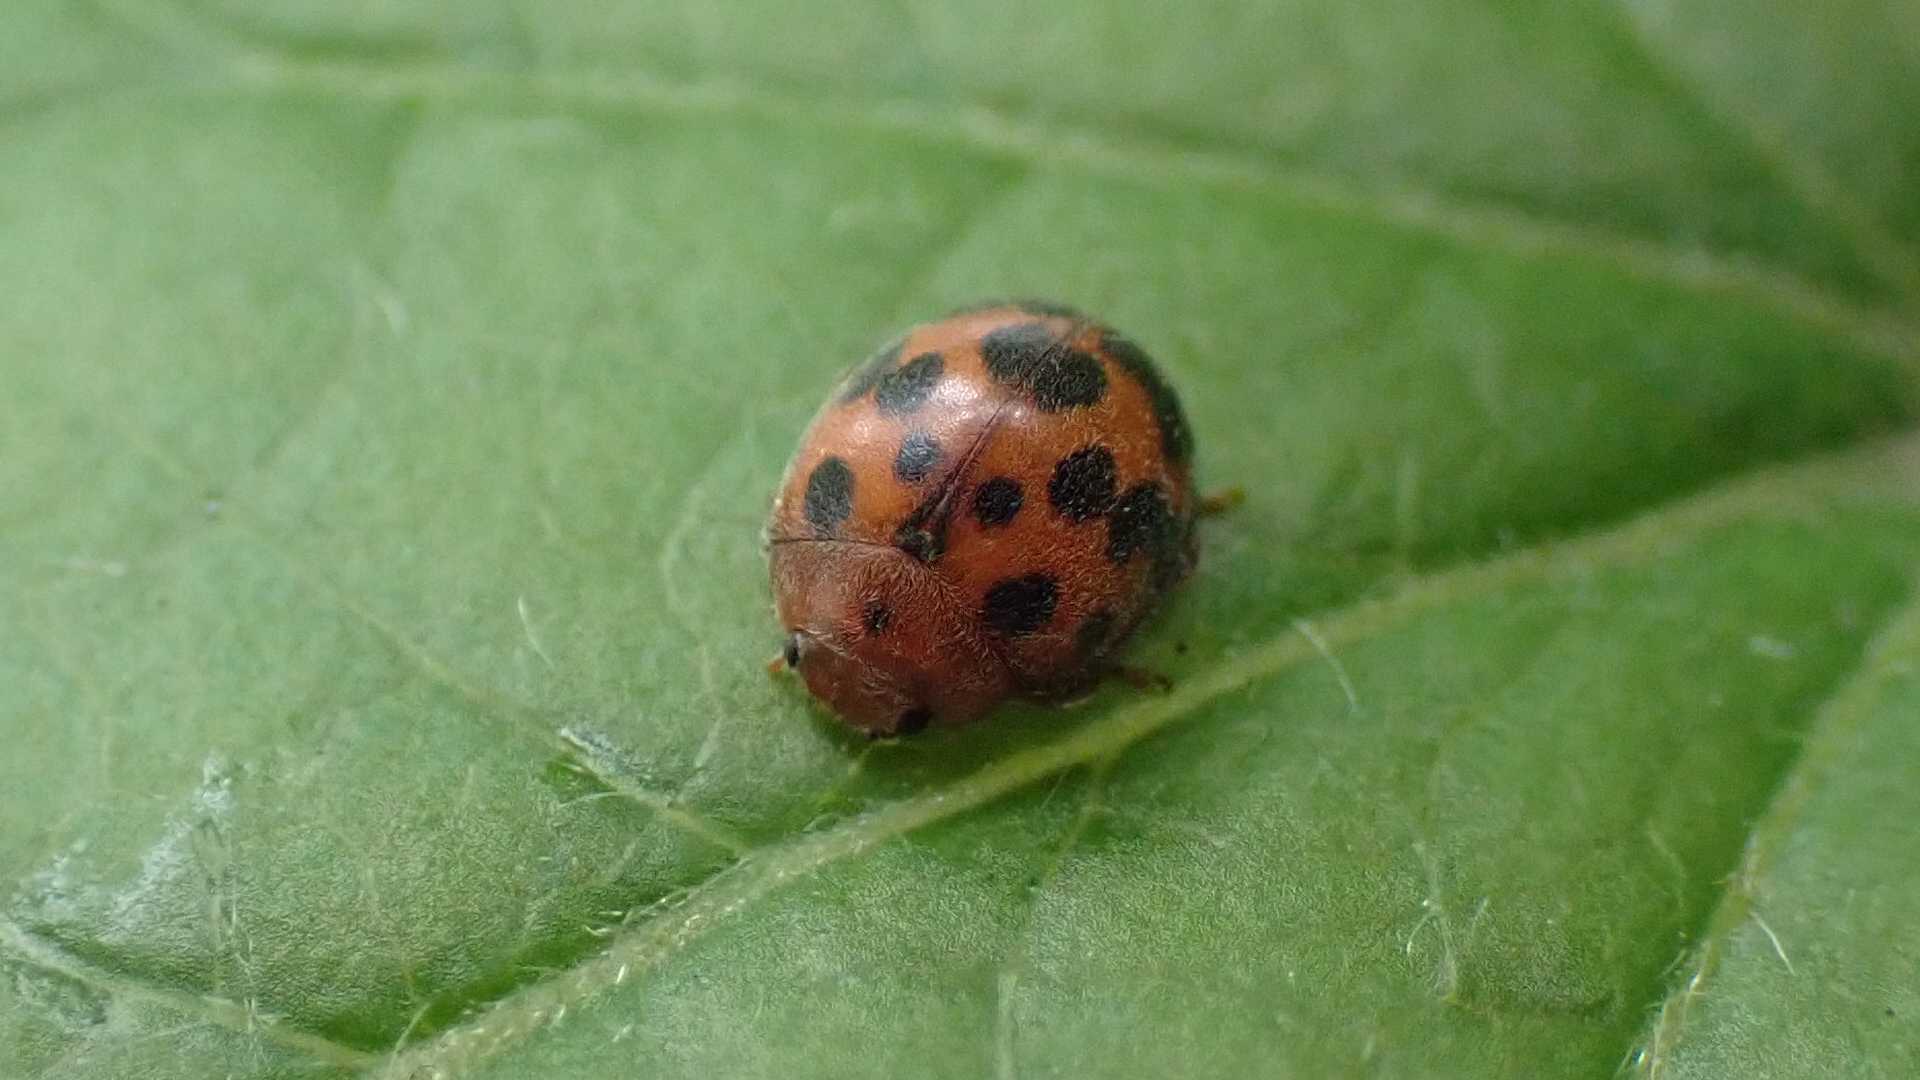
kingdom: Animalia
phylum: Arthropoda
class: Insecta
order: Coleoptera
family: Coccinellidae
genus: Subcoccinella
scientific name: Subcoccinella vigintiquatuorpunctata
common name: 24-spot ladybird
